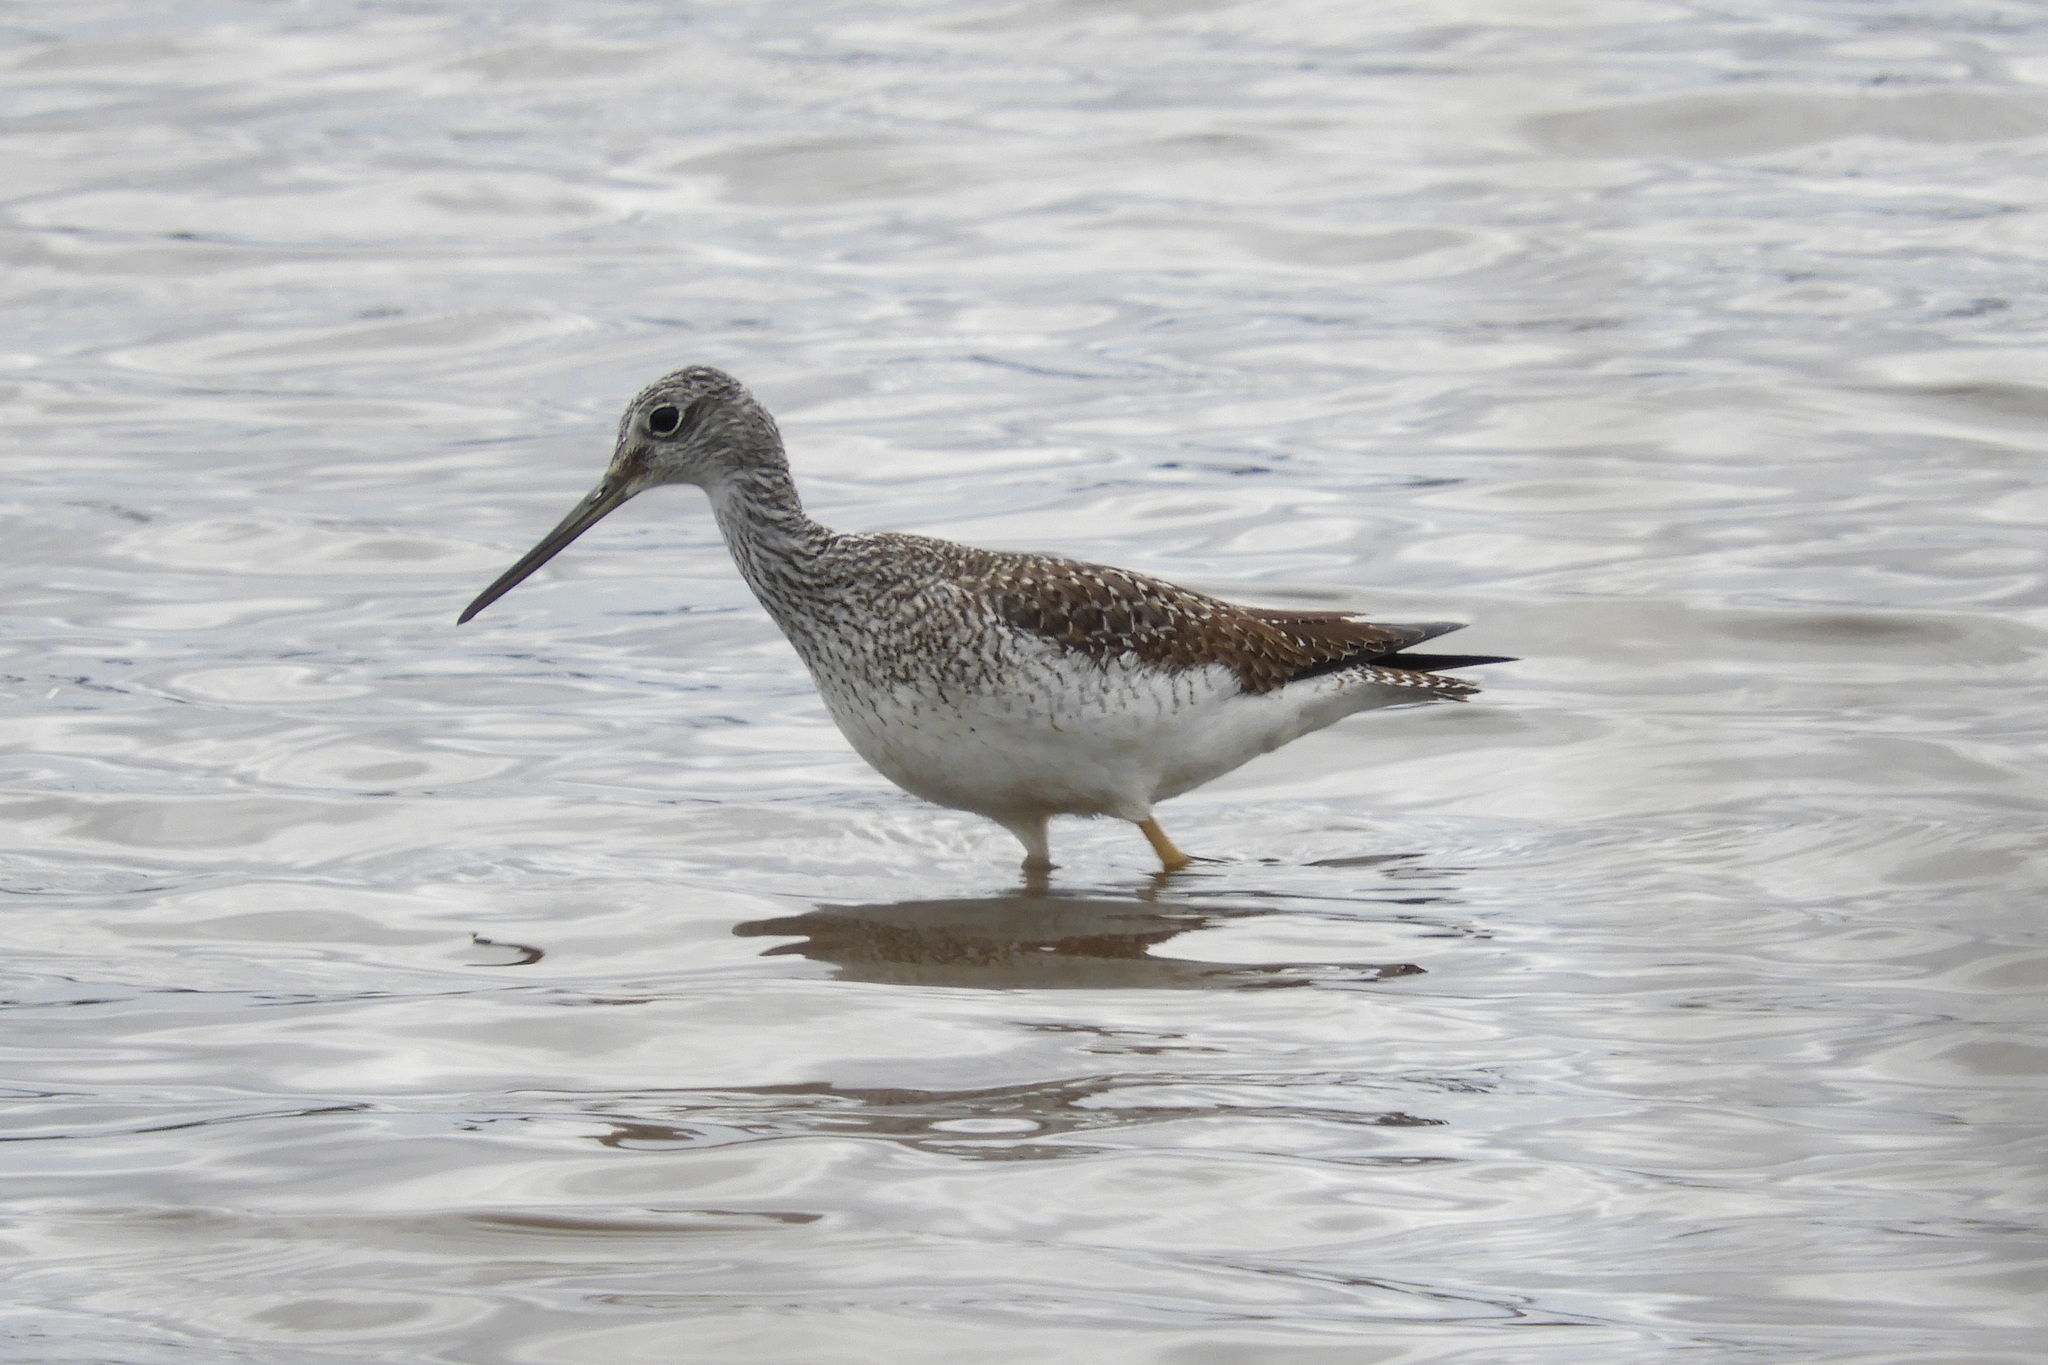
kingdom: Animalia
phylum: Chordata
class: Aves
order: Charadriiformes
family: Scolopacidae
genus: Tringa
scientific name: Tringa melanoleuca
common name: Greater yellowlegs
